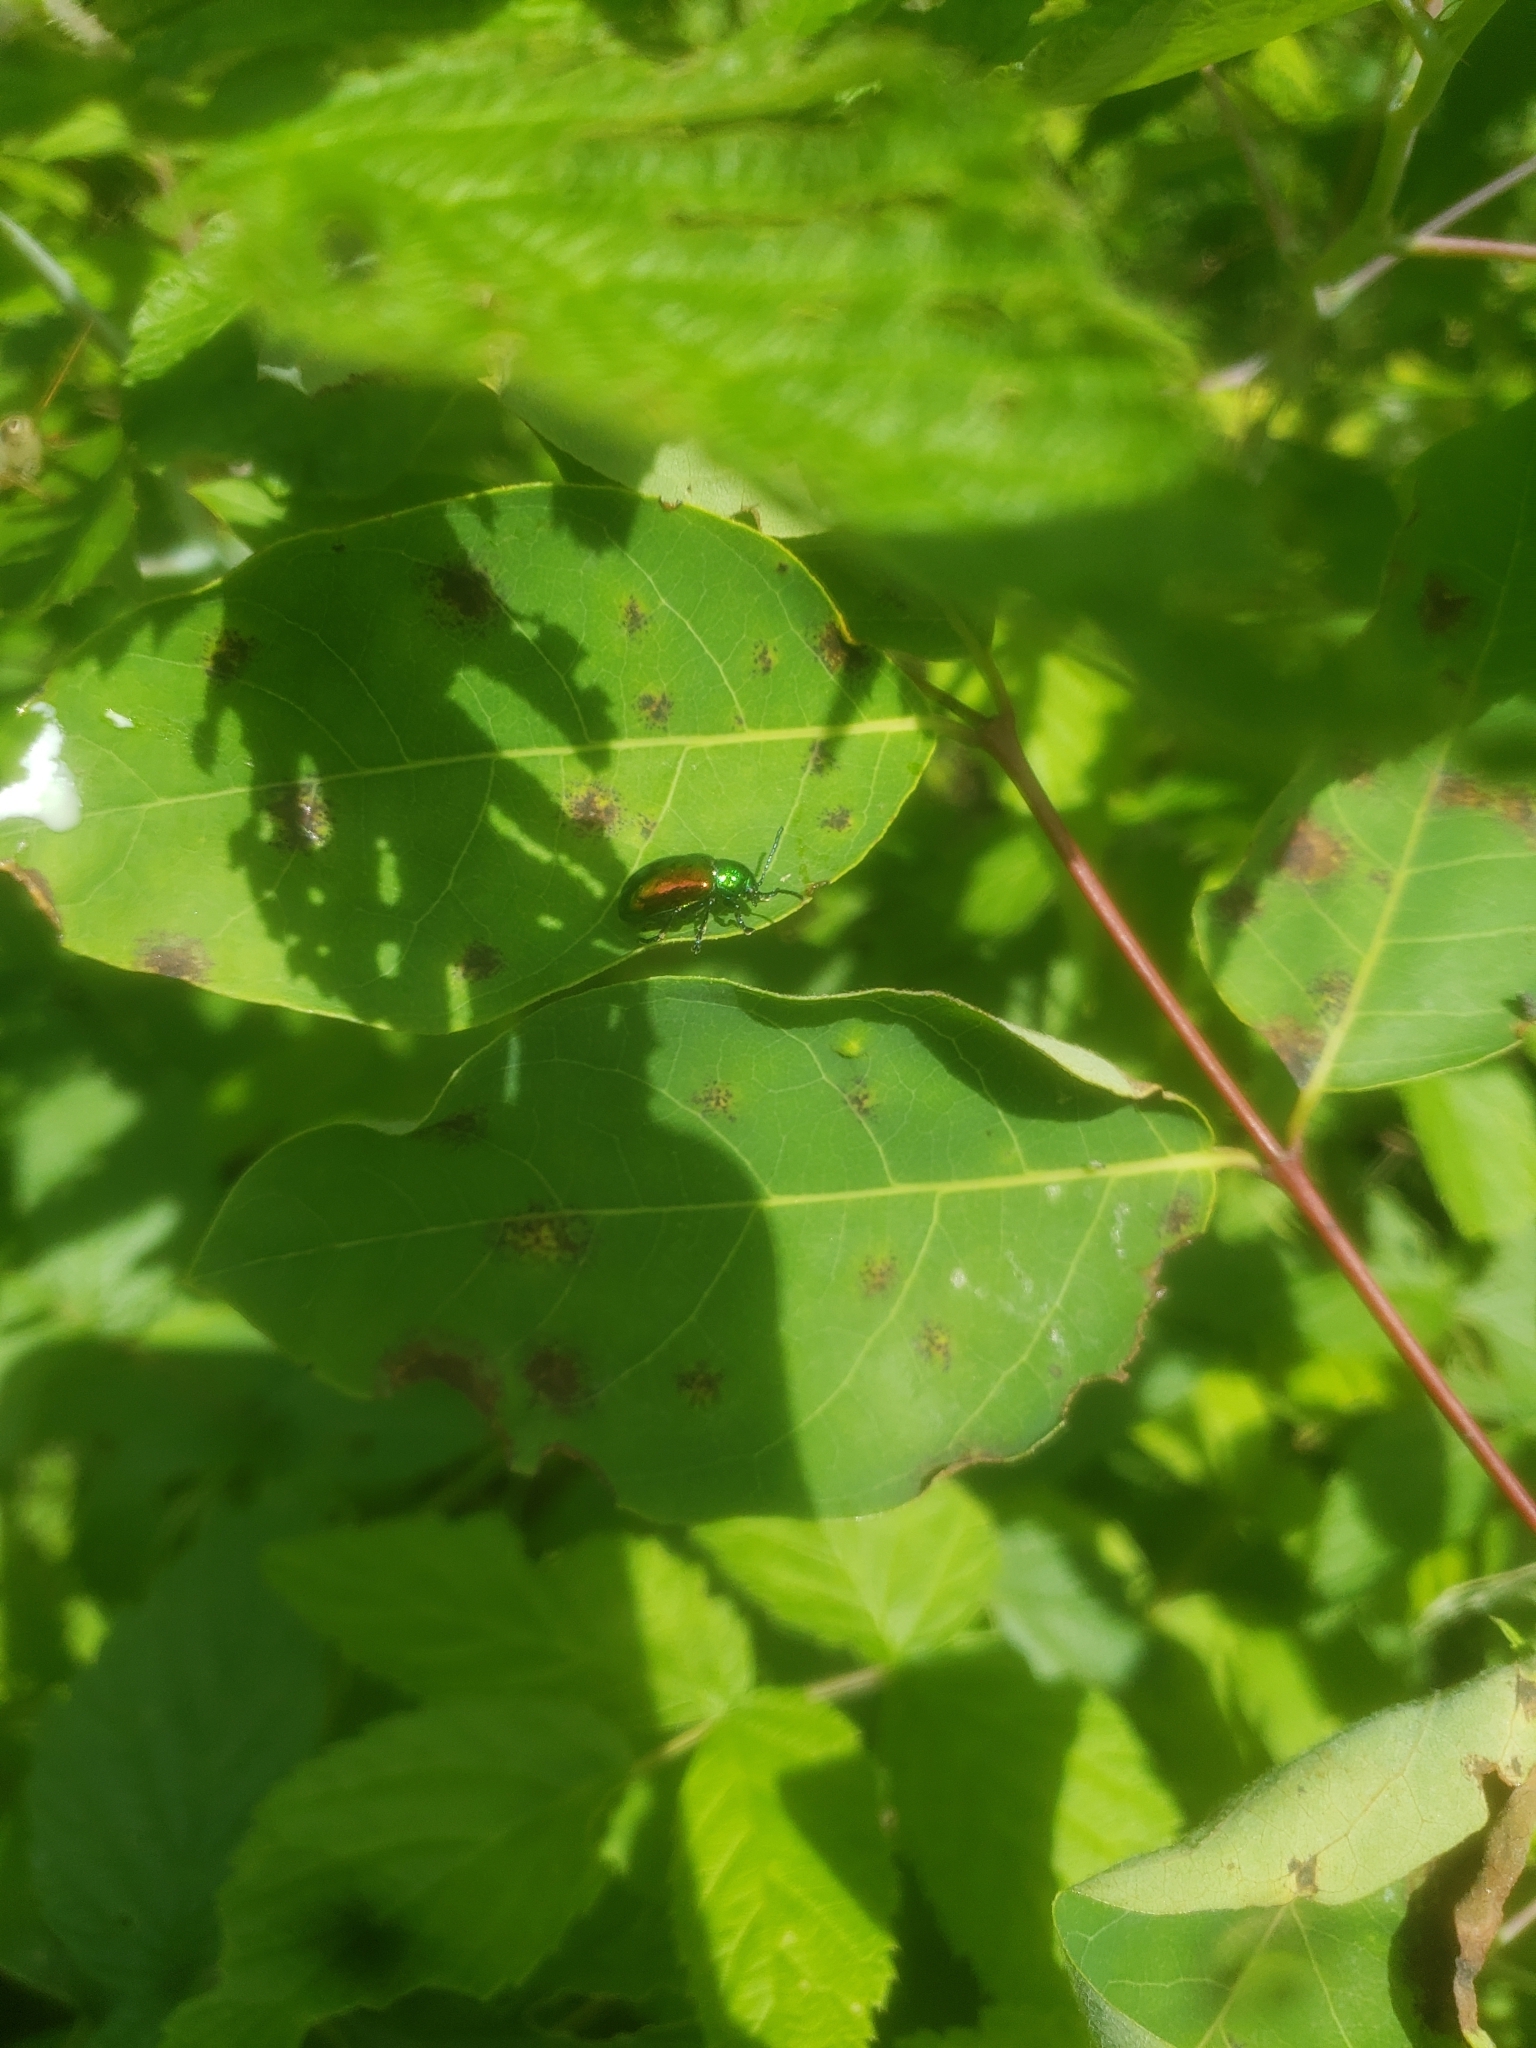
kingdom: Animalia
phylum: Arthropoda
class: Insecta
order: Coleoptera
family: Chrysomelidae
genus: Chrysochus
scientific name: Chrysochus auratus
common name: Dogbane leaf beetle
